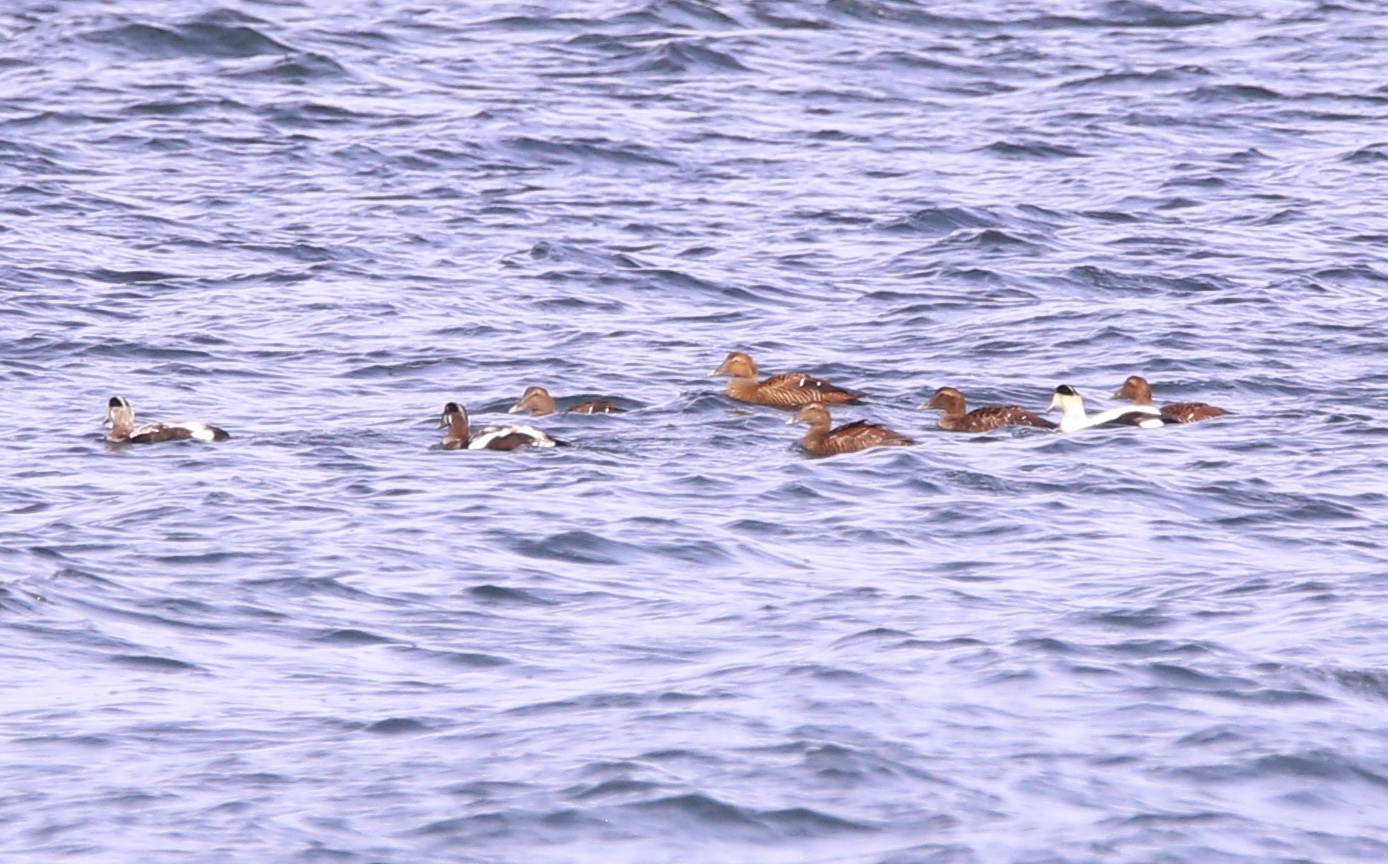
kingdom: Animalia
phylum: Chordata
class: Aves
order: Anseriformes
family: Anatidae
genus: Somateria
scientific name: Somateria mollissima
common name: Common eider
